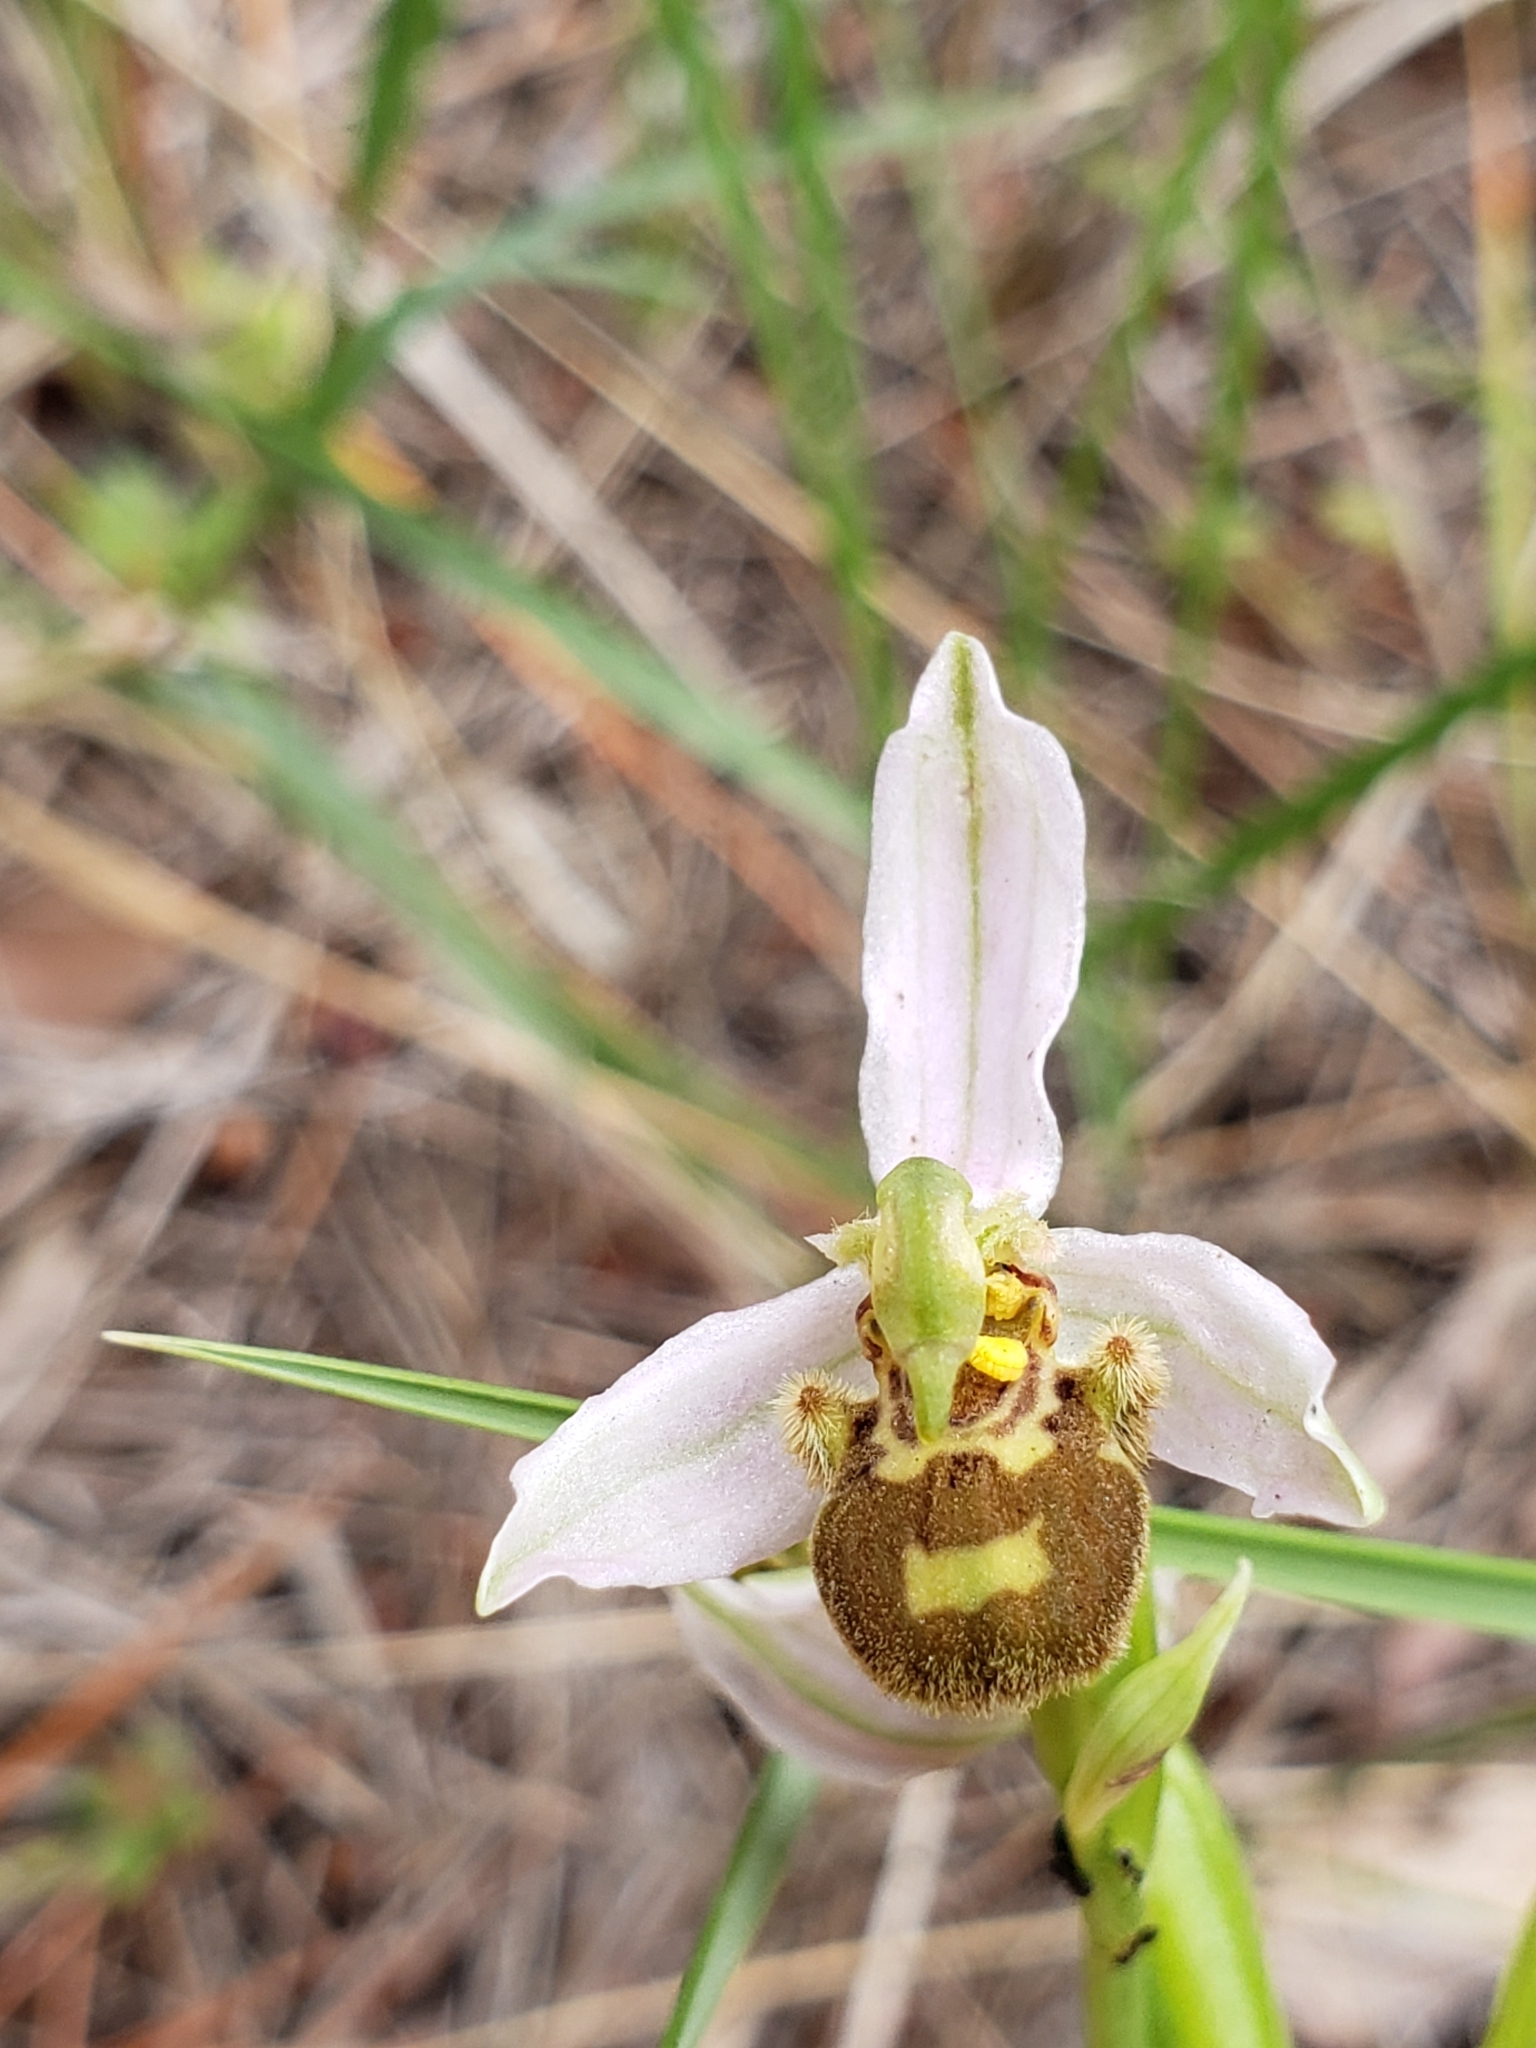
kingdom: Plantae
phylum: Tracheophyta
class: Liliopsida
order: Asparagales
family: Orchidaceae
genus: Ophrys
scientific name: Ophrys apifera
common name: Bee orchid
